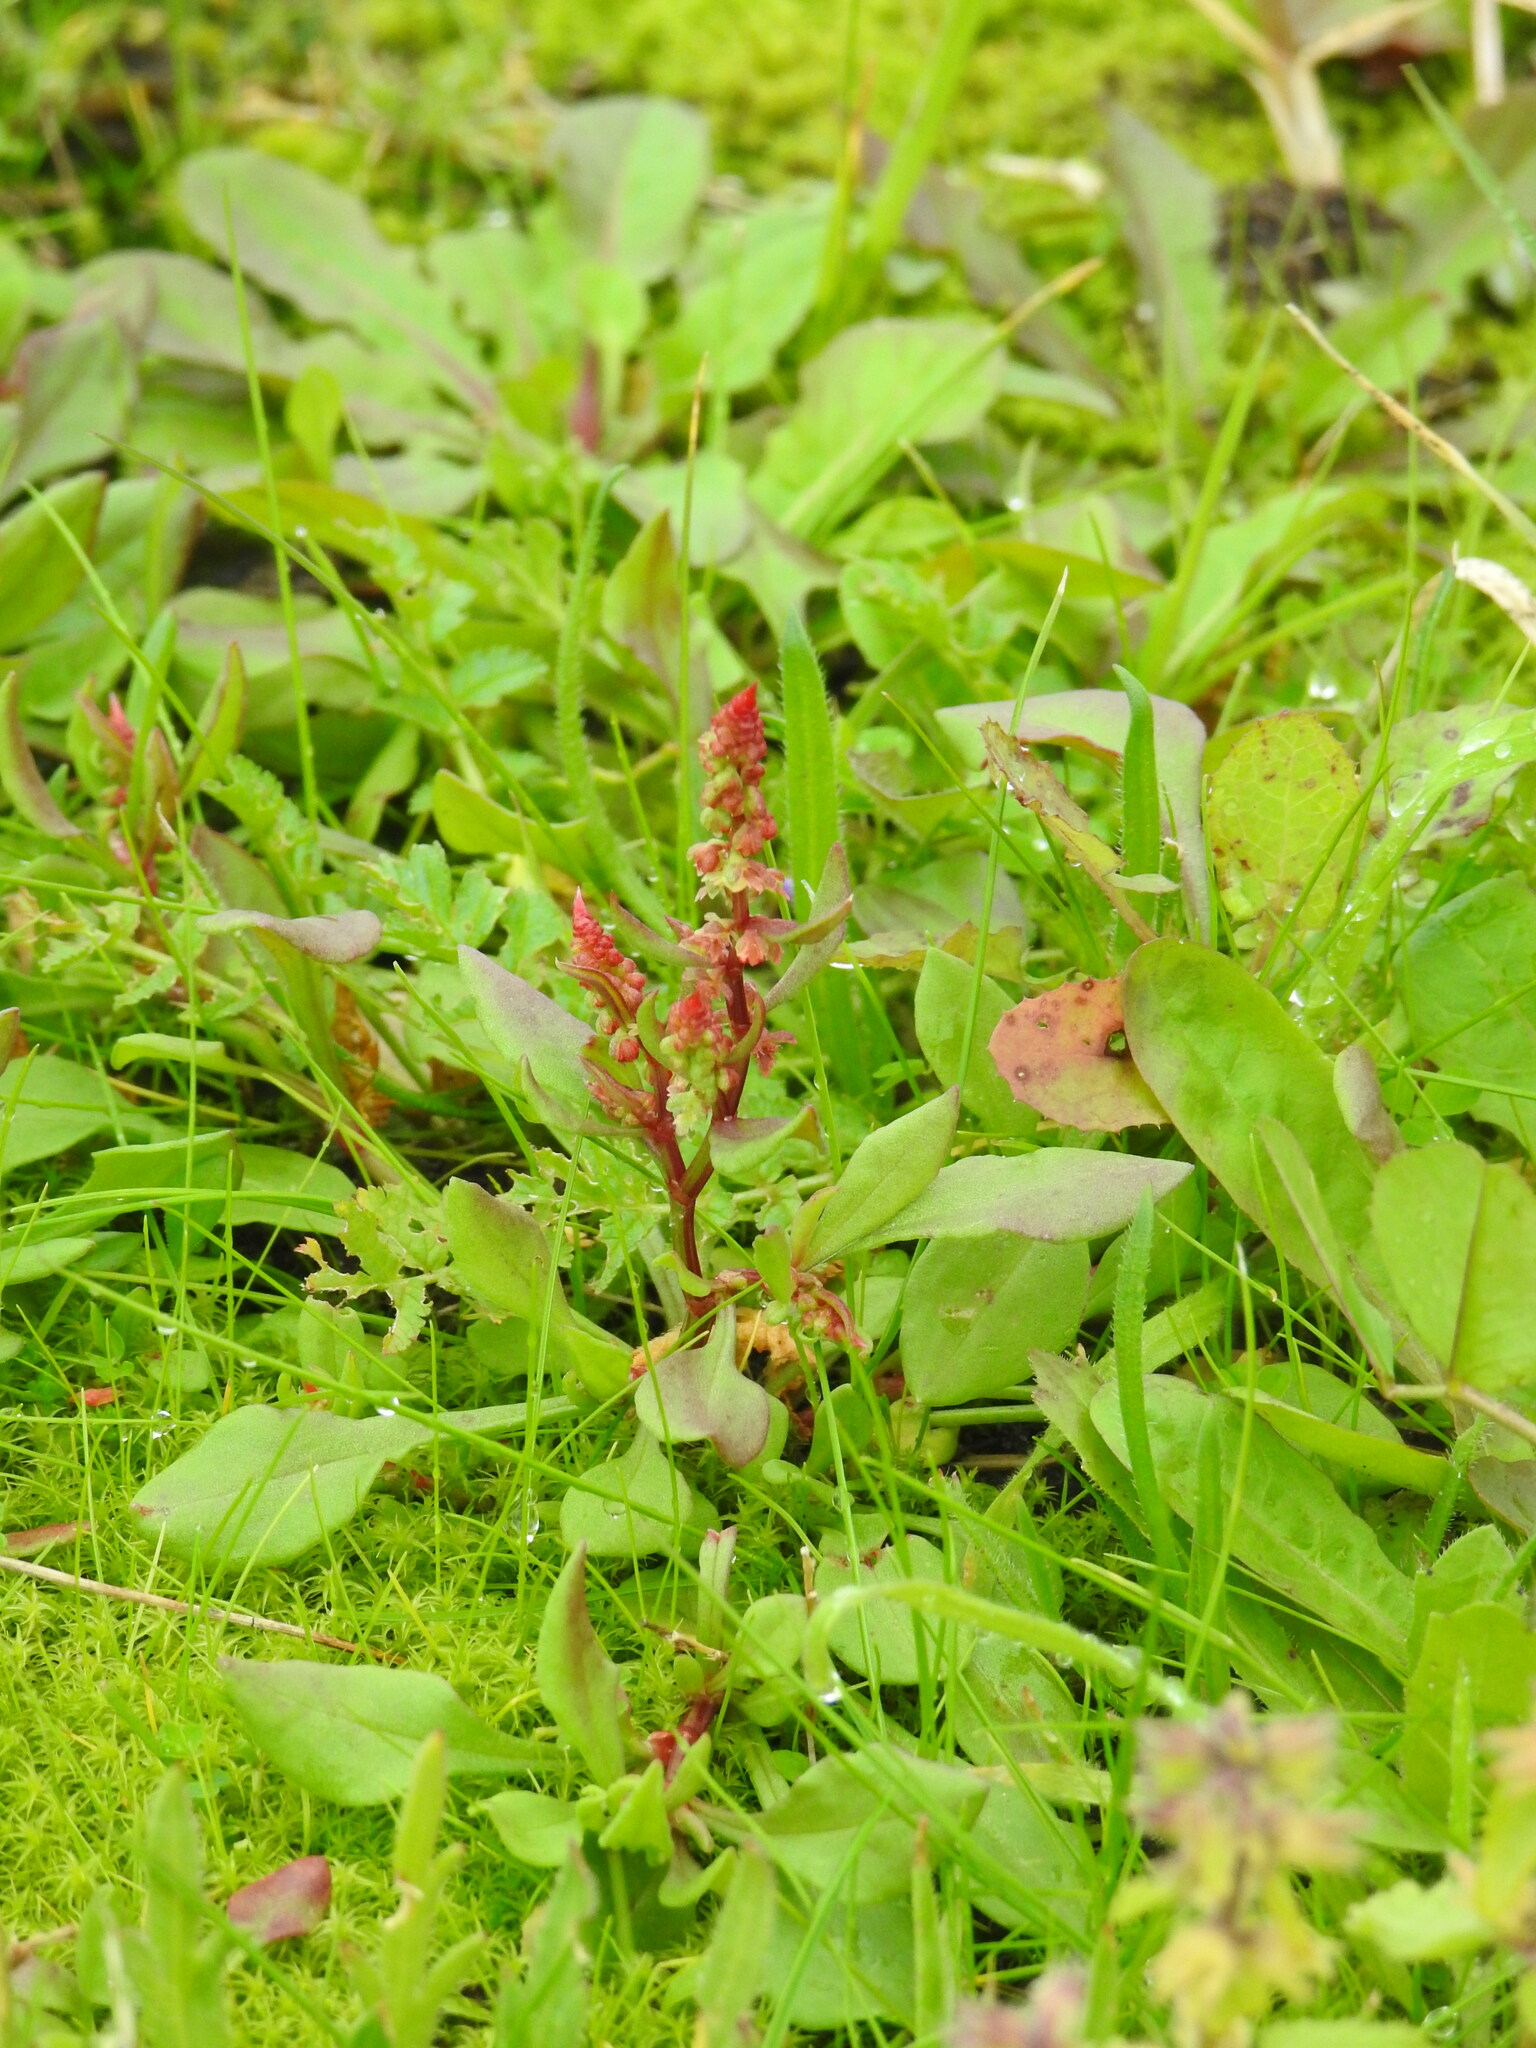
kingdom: Plantae
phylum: Tracheophyta
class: Magnoliopsida
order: Caryophyllales
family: Polygonaceae
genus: Rumex
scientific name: Rumex bucephalophorus
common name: Red dock
